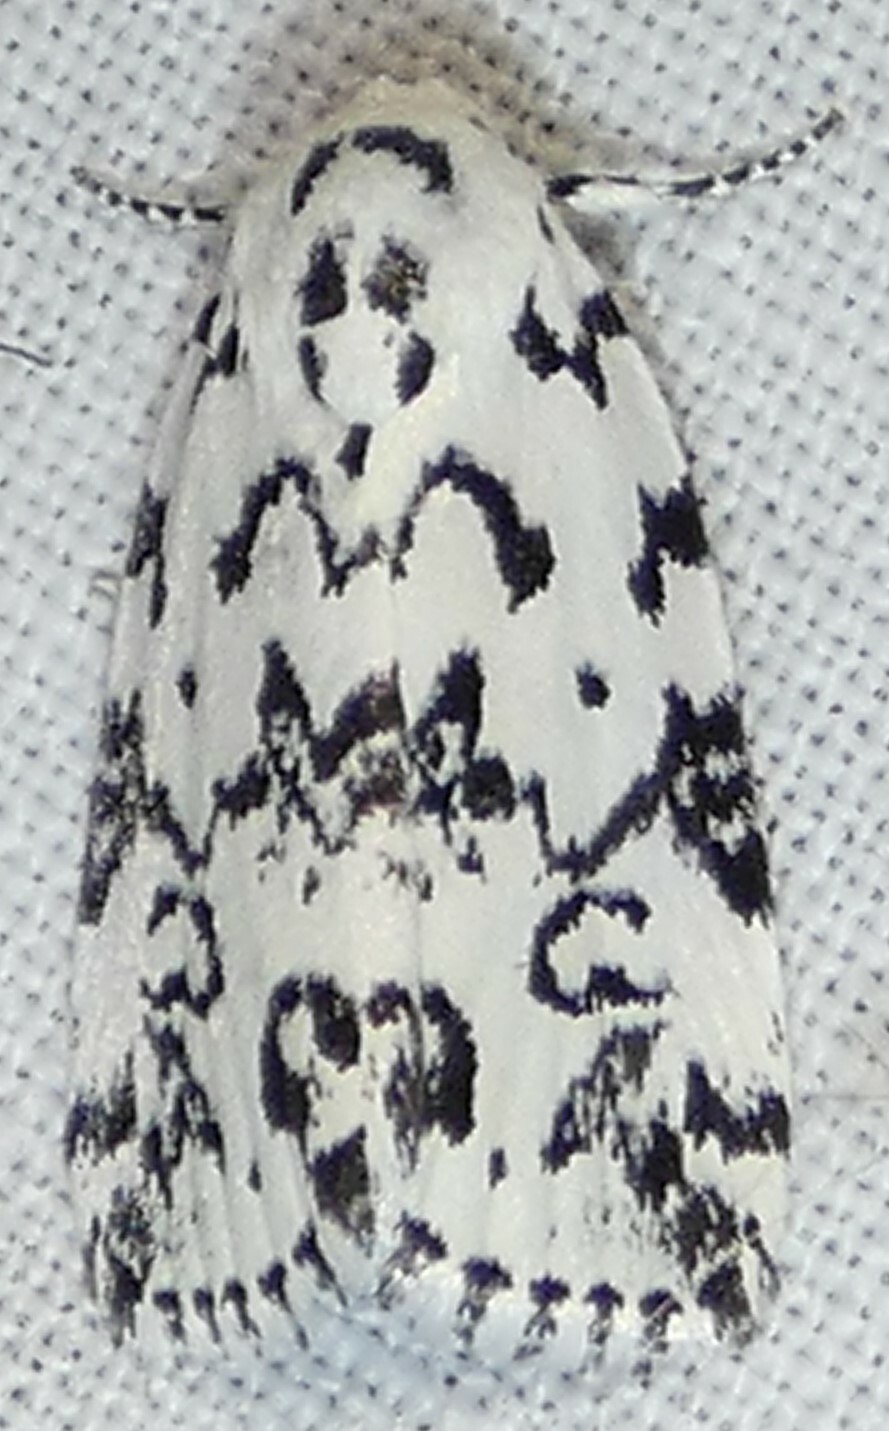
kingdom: Animalia
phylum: Arthropoda
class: Insecta
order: Lepidoptera
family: Noctuidae
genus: Polygrammate
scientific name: Polygrammate hebraeicum
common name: Hebrew moth
